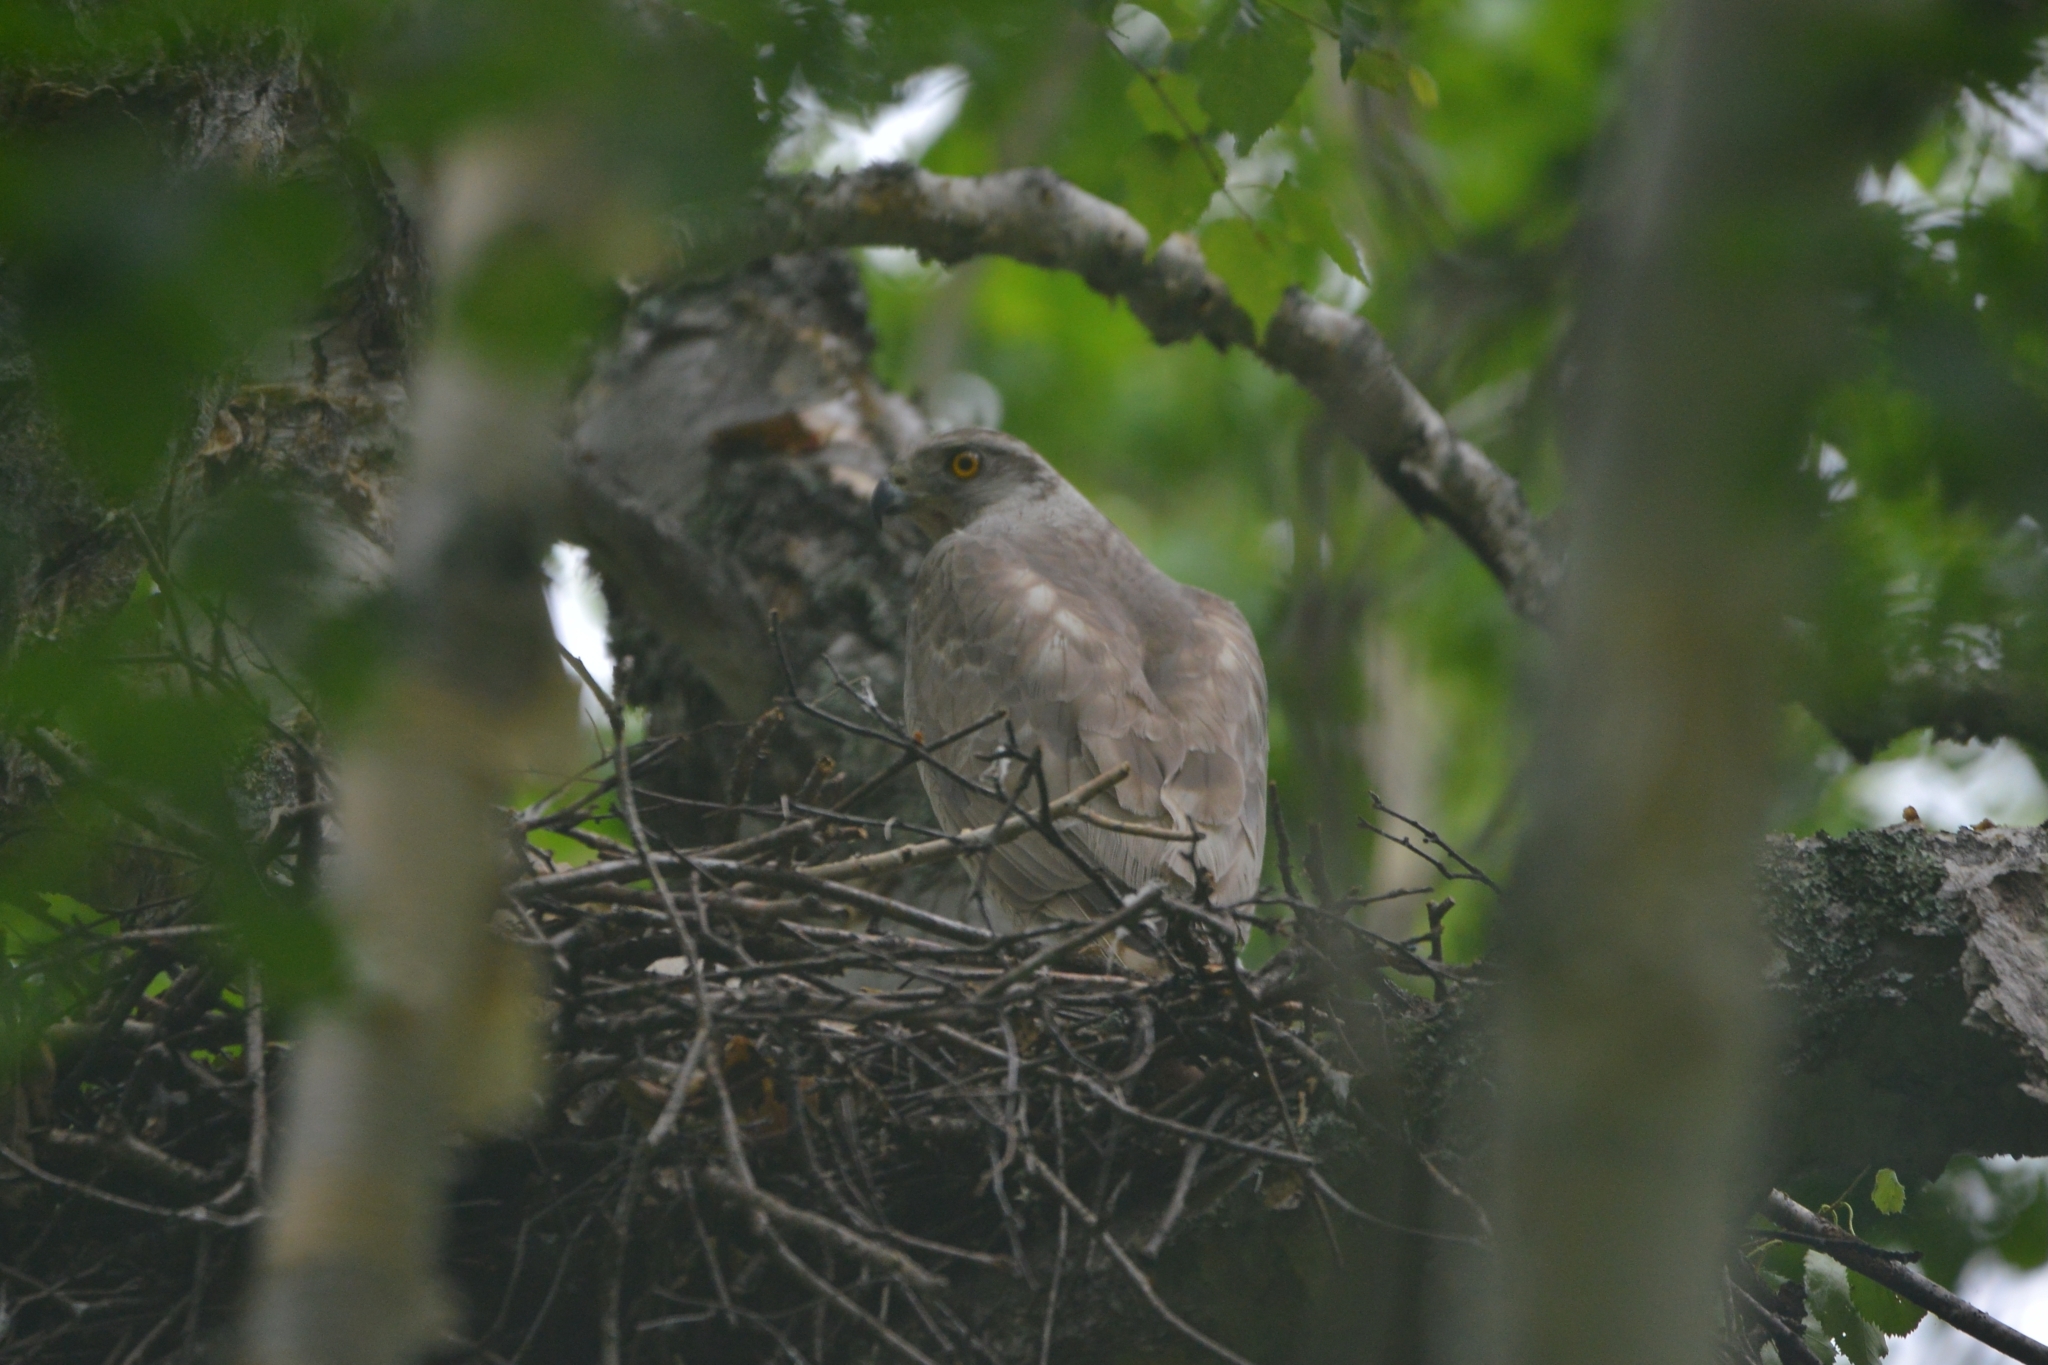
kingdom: Animalia
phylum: Chordata
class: Aves
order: Accipitriformes
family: Accipitridae
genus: Accipiter
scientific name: Accipiter gentilis
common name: Northern goshawk
